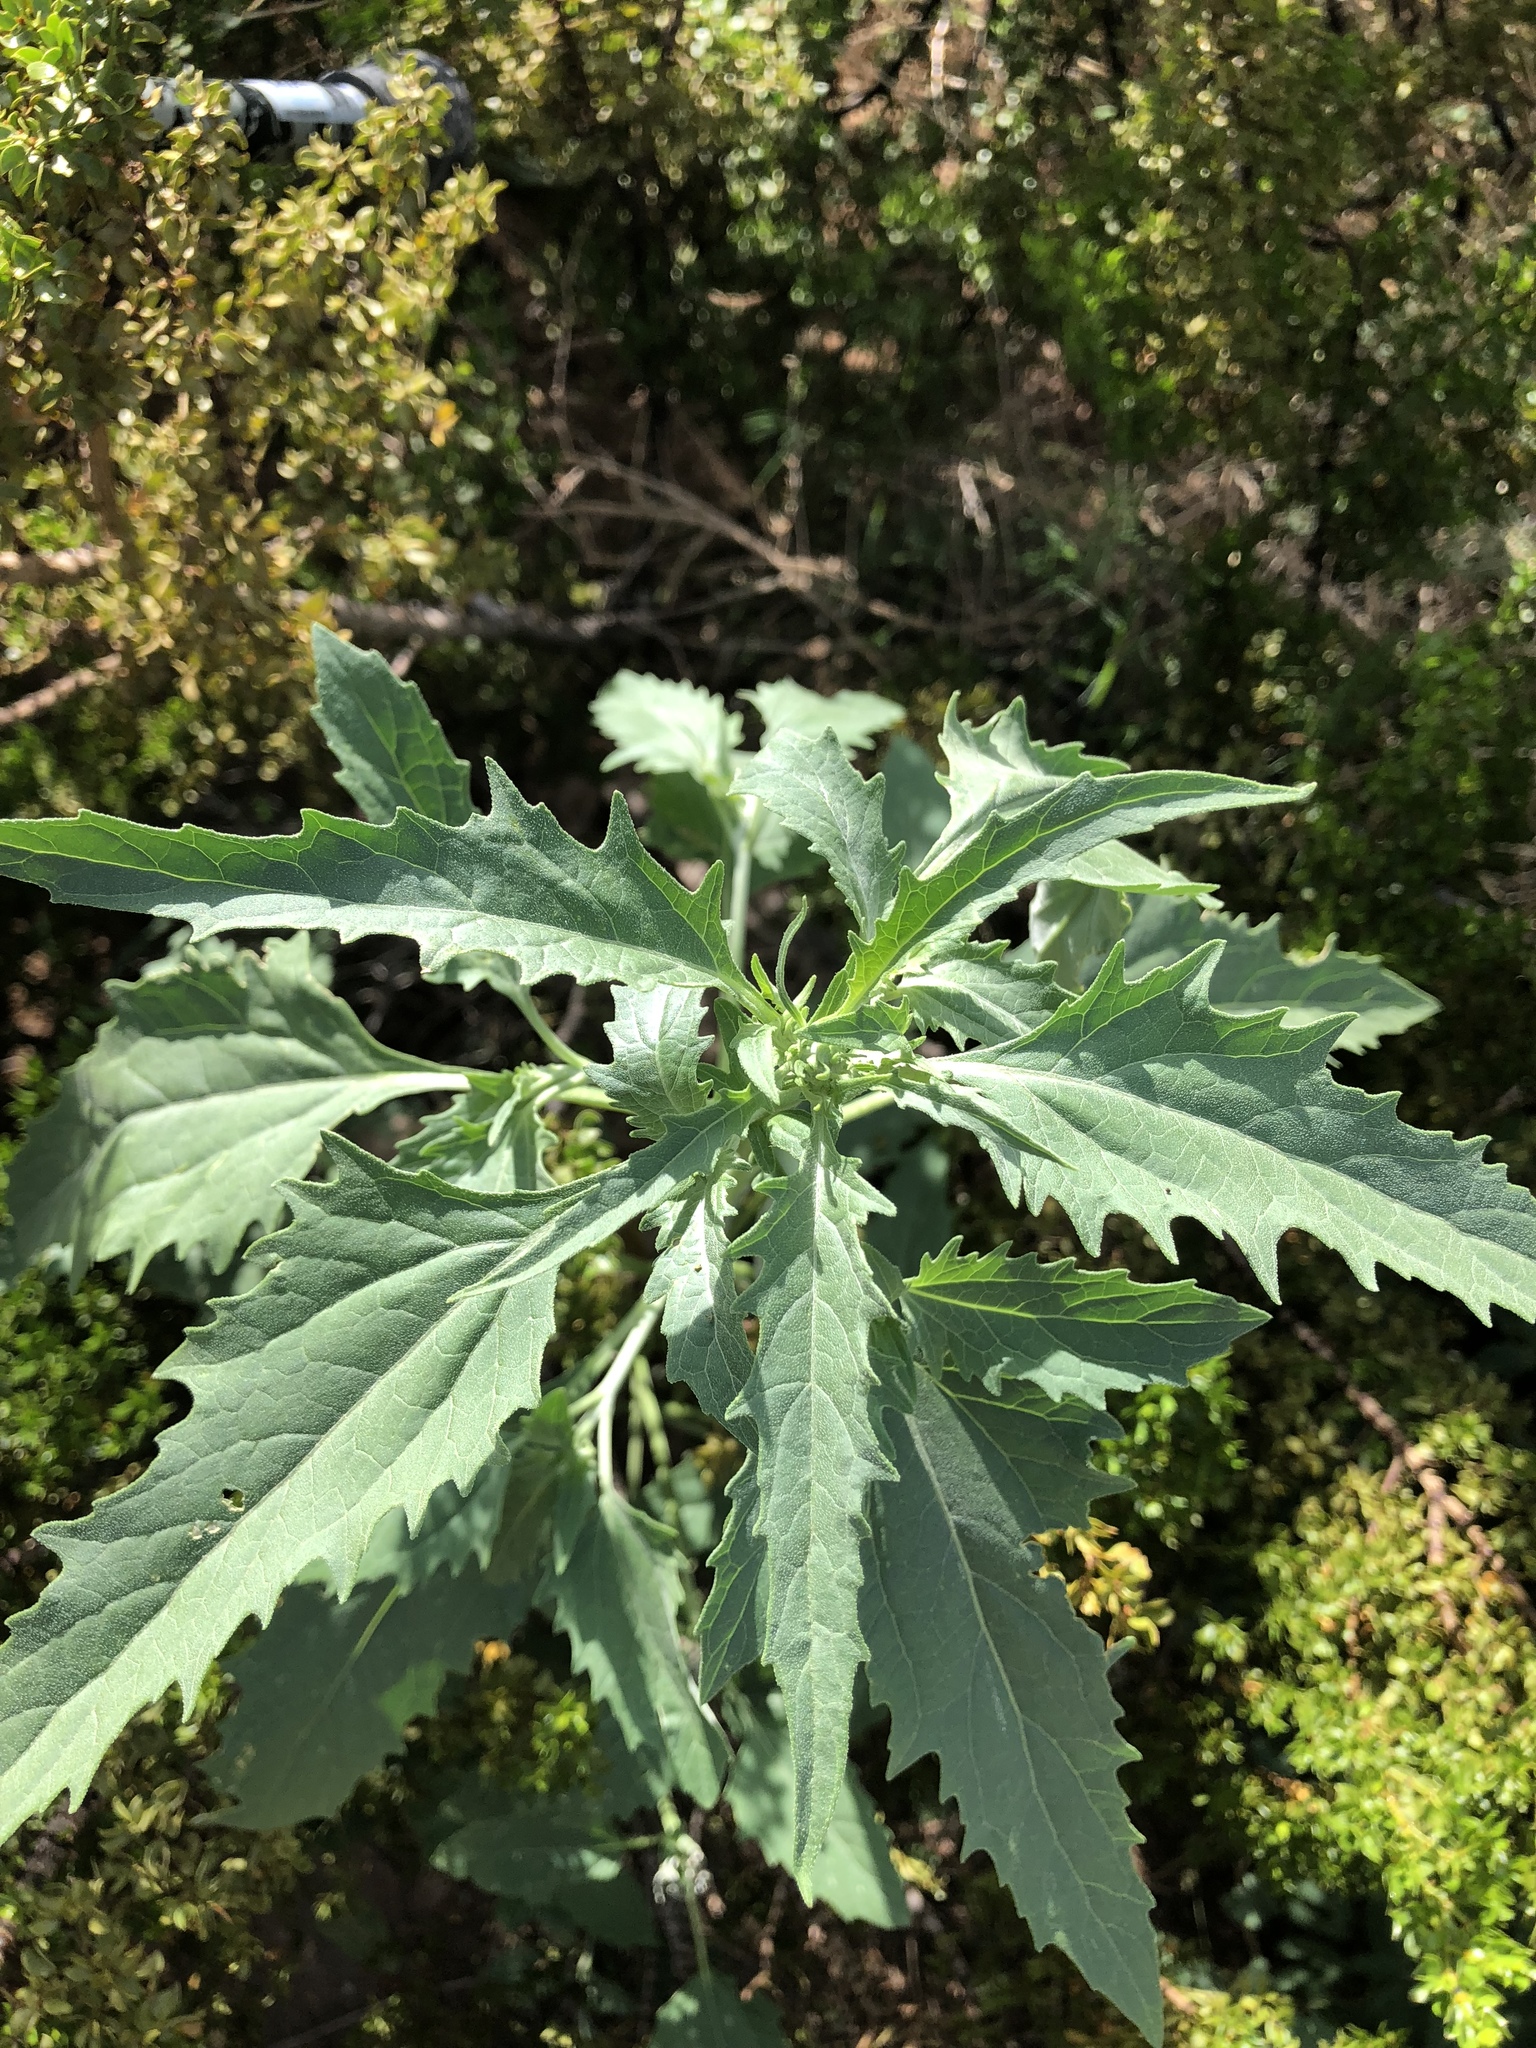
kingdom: Plantae
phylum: Tracheophyta
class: Magnoliopsida
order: Asterales
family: Asteraceae
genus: Verbesina
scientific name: Verbesina encelioides
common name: Golden crownbeard
